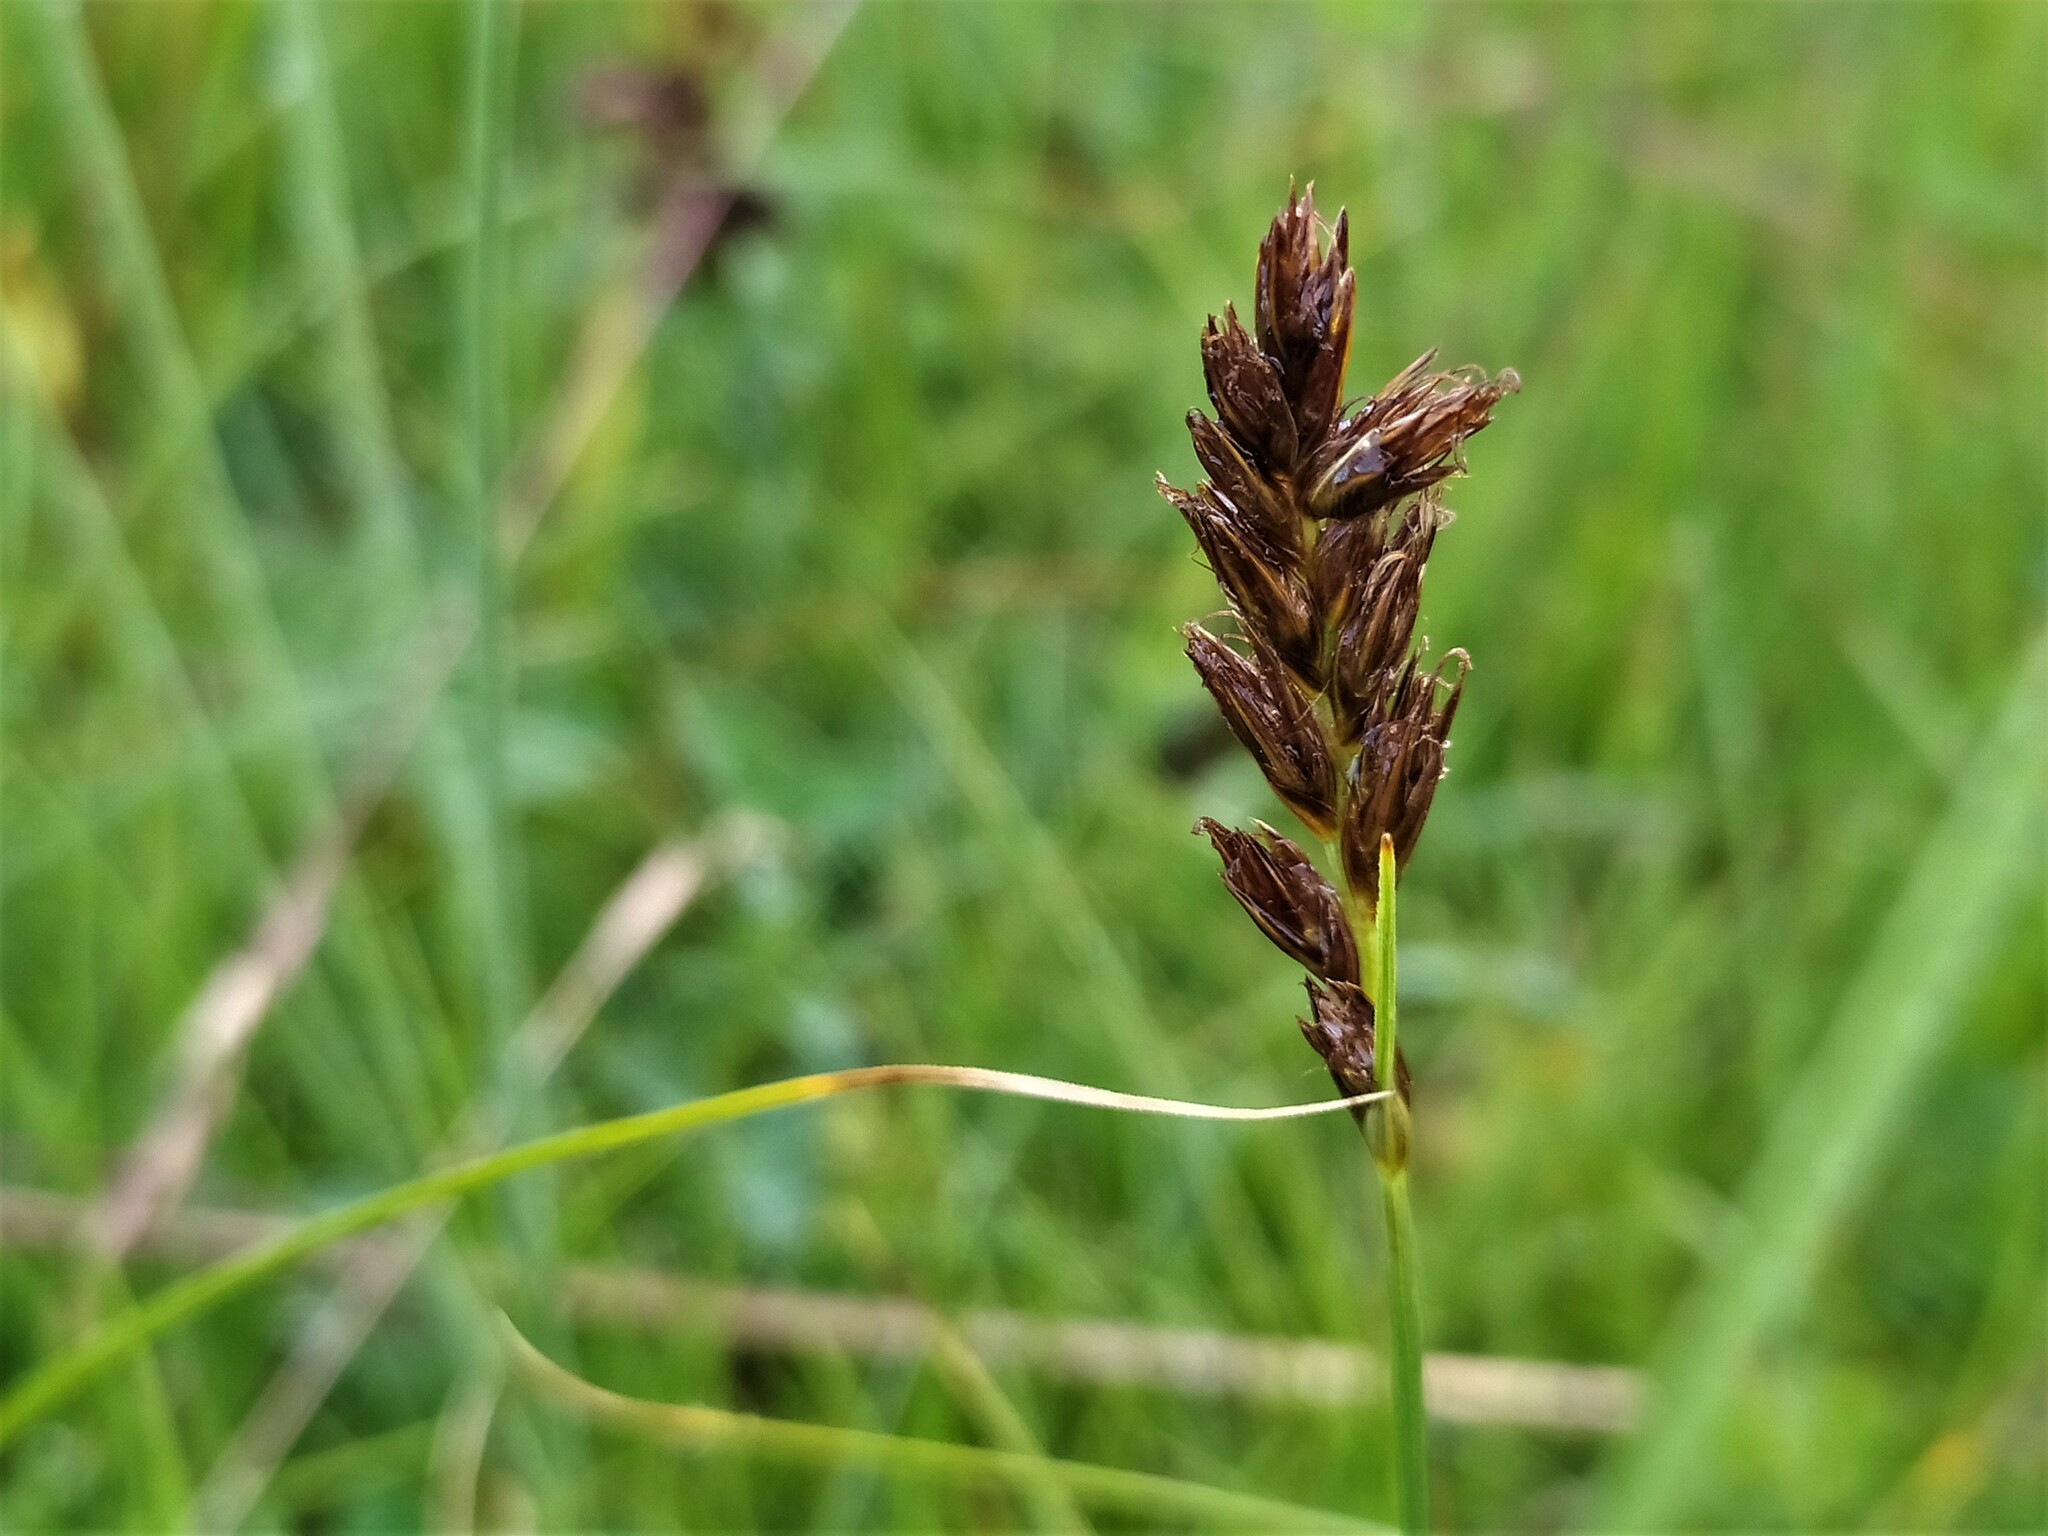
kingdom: Plantae
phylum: Tracheophyta
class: Liliopsida
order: Poales
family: Cyperaceae
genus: Blysmus
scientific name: Blysmus compressus
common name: Flat-sedge
